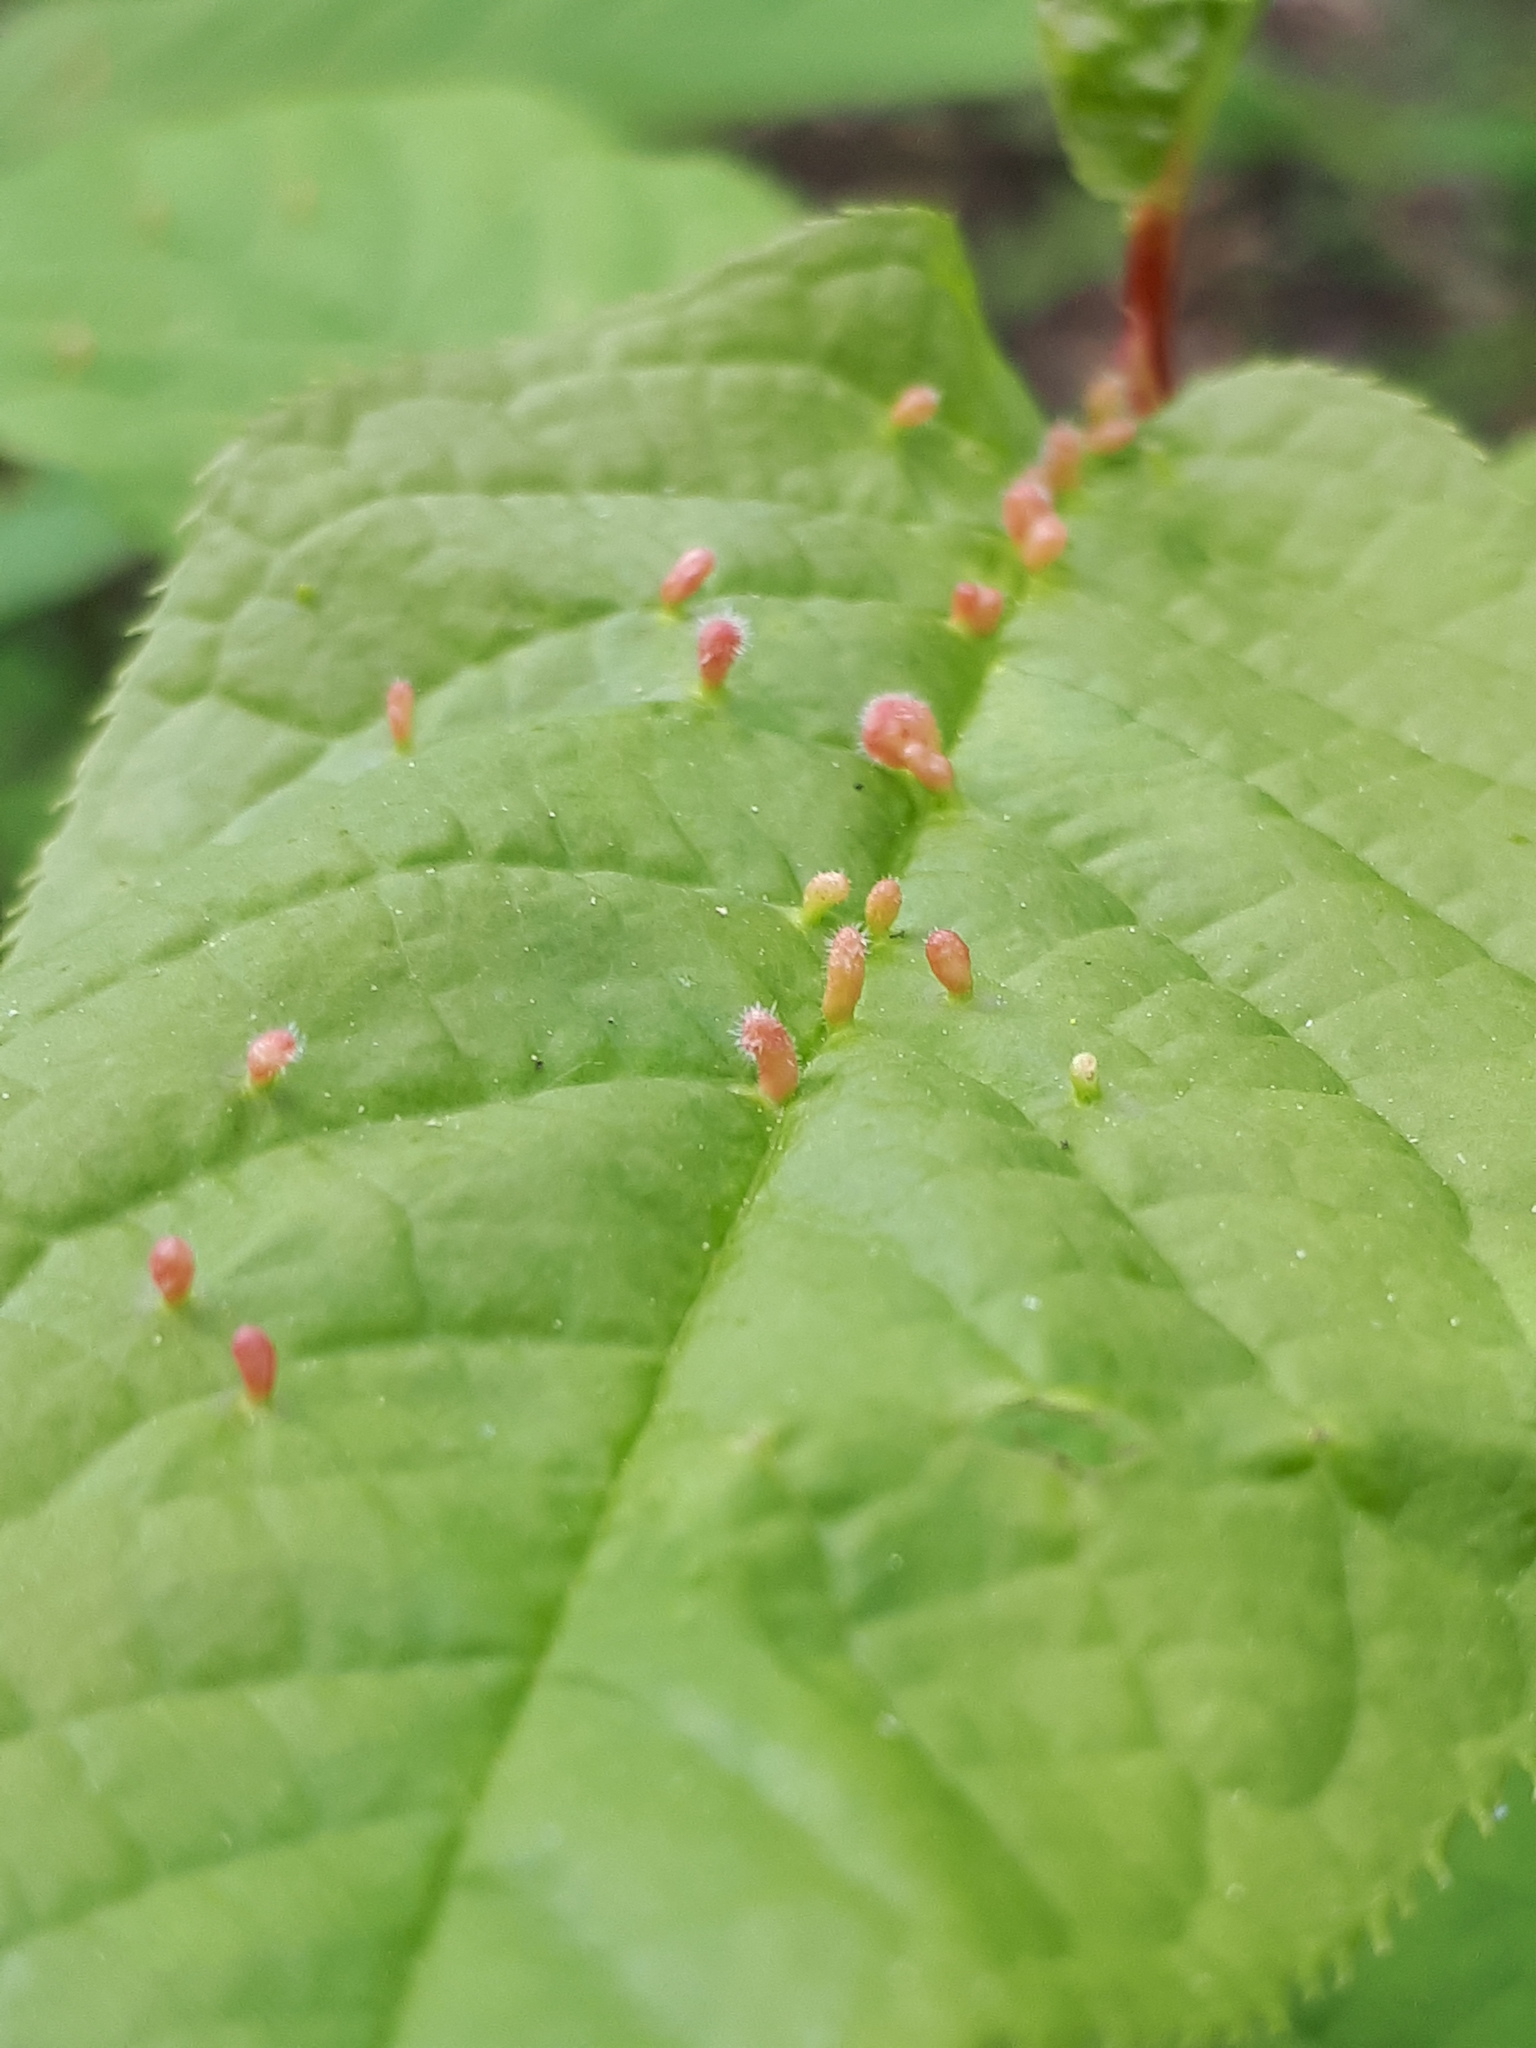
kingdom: Animalia
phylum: Arthropoda
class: Arachnida
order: Trombidiformes
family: Eriophyidae
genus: Phyllocoptes
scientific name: Phyllocoptes eupadi
